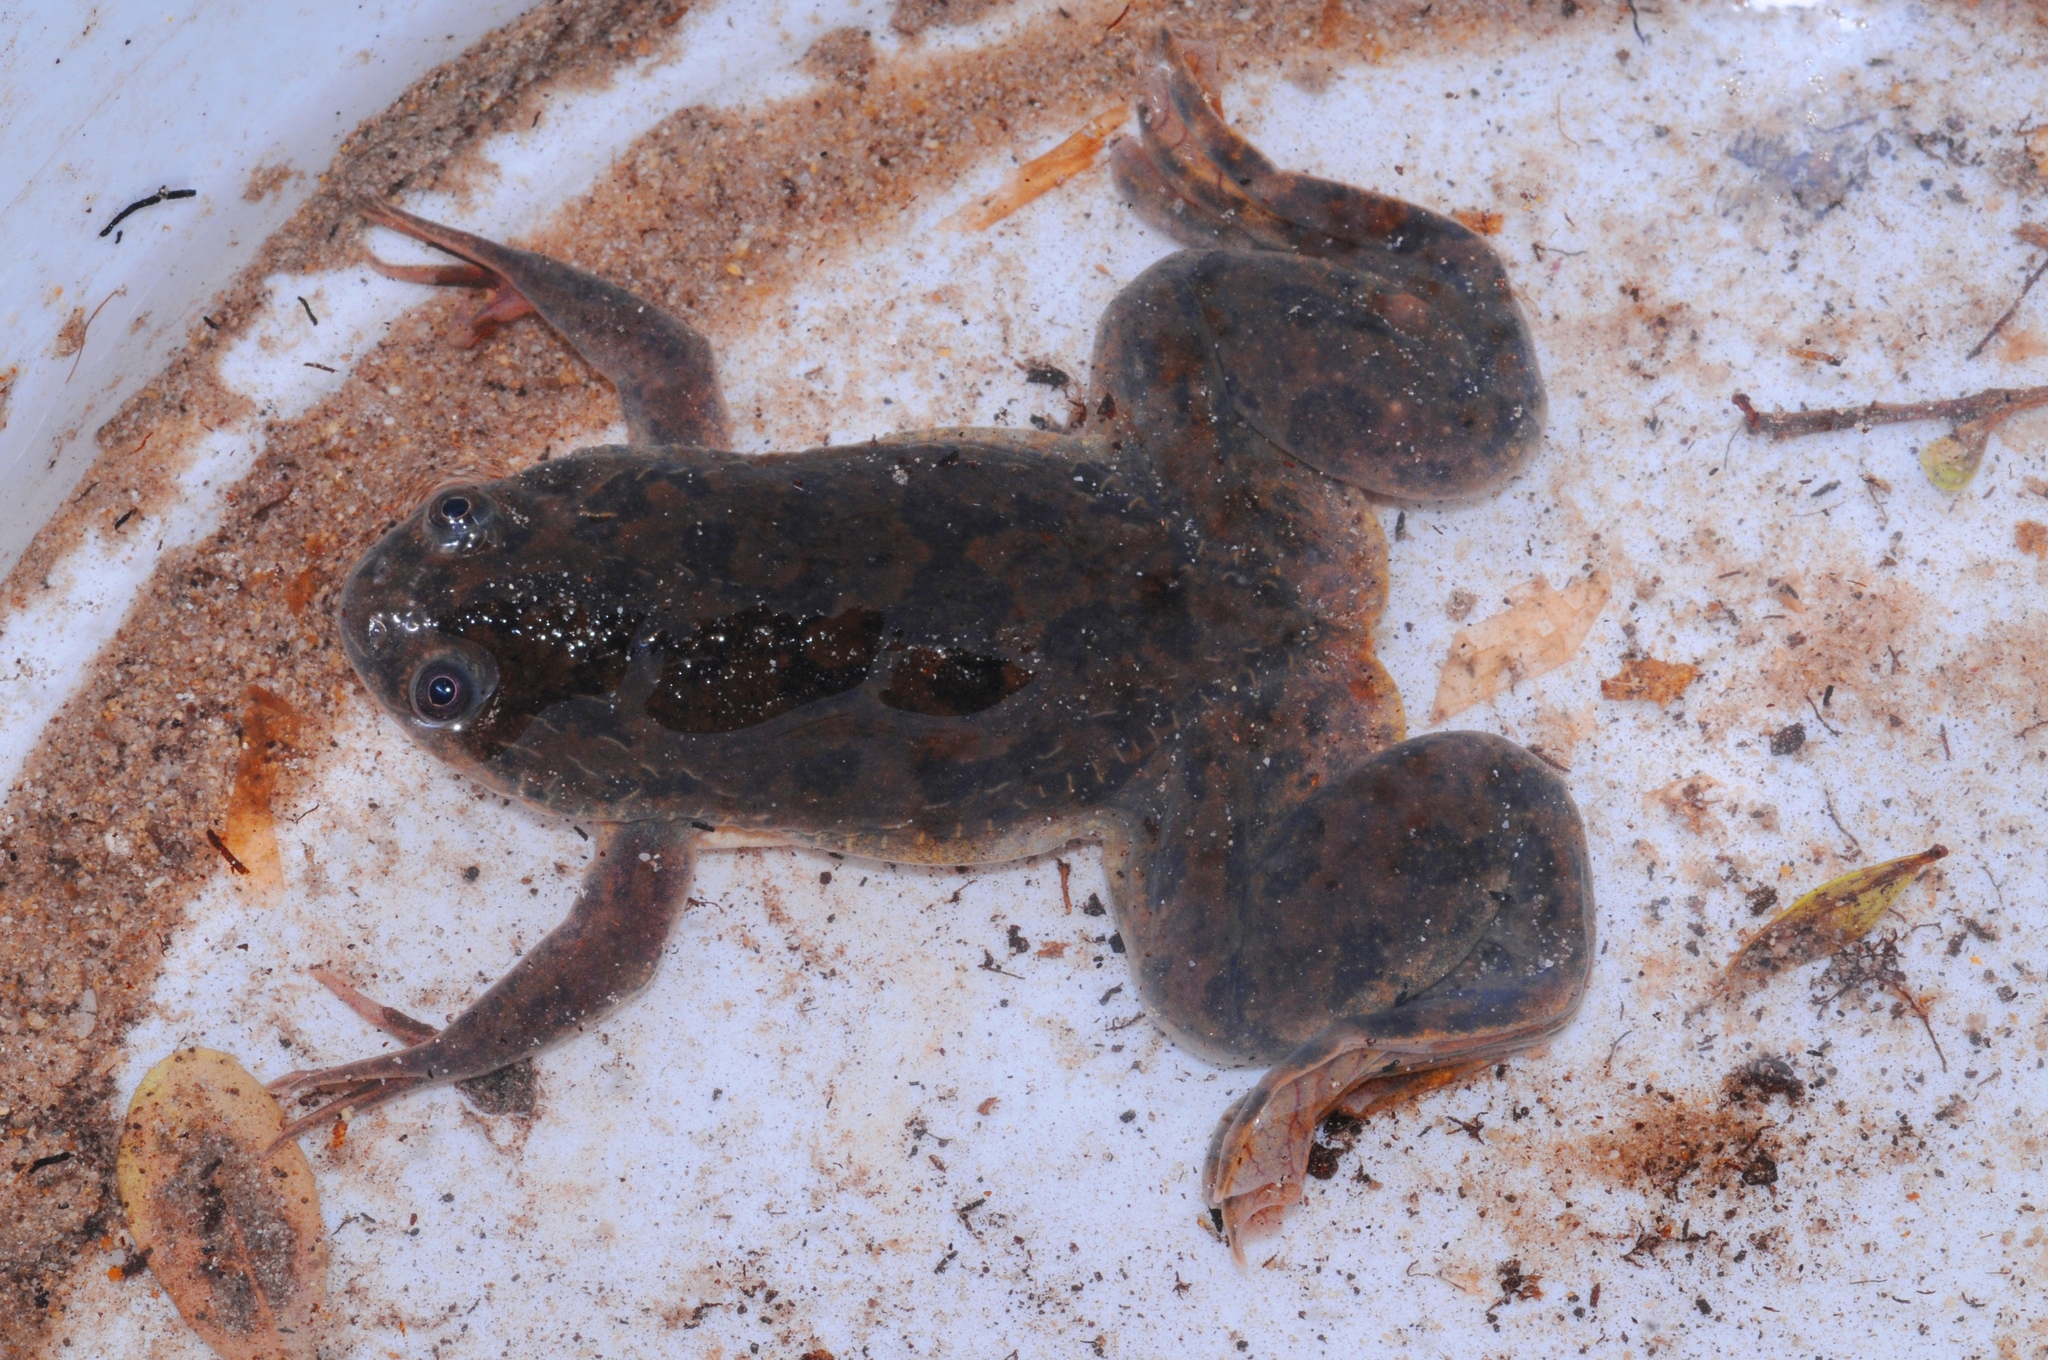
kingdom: Animalia
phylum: Chordata
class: Amphibia
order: Anura
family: Pipidae
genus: Xenopus
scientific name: Xenopus laevis
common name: African clawed frog
